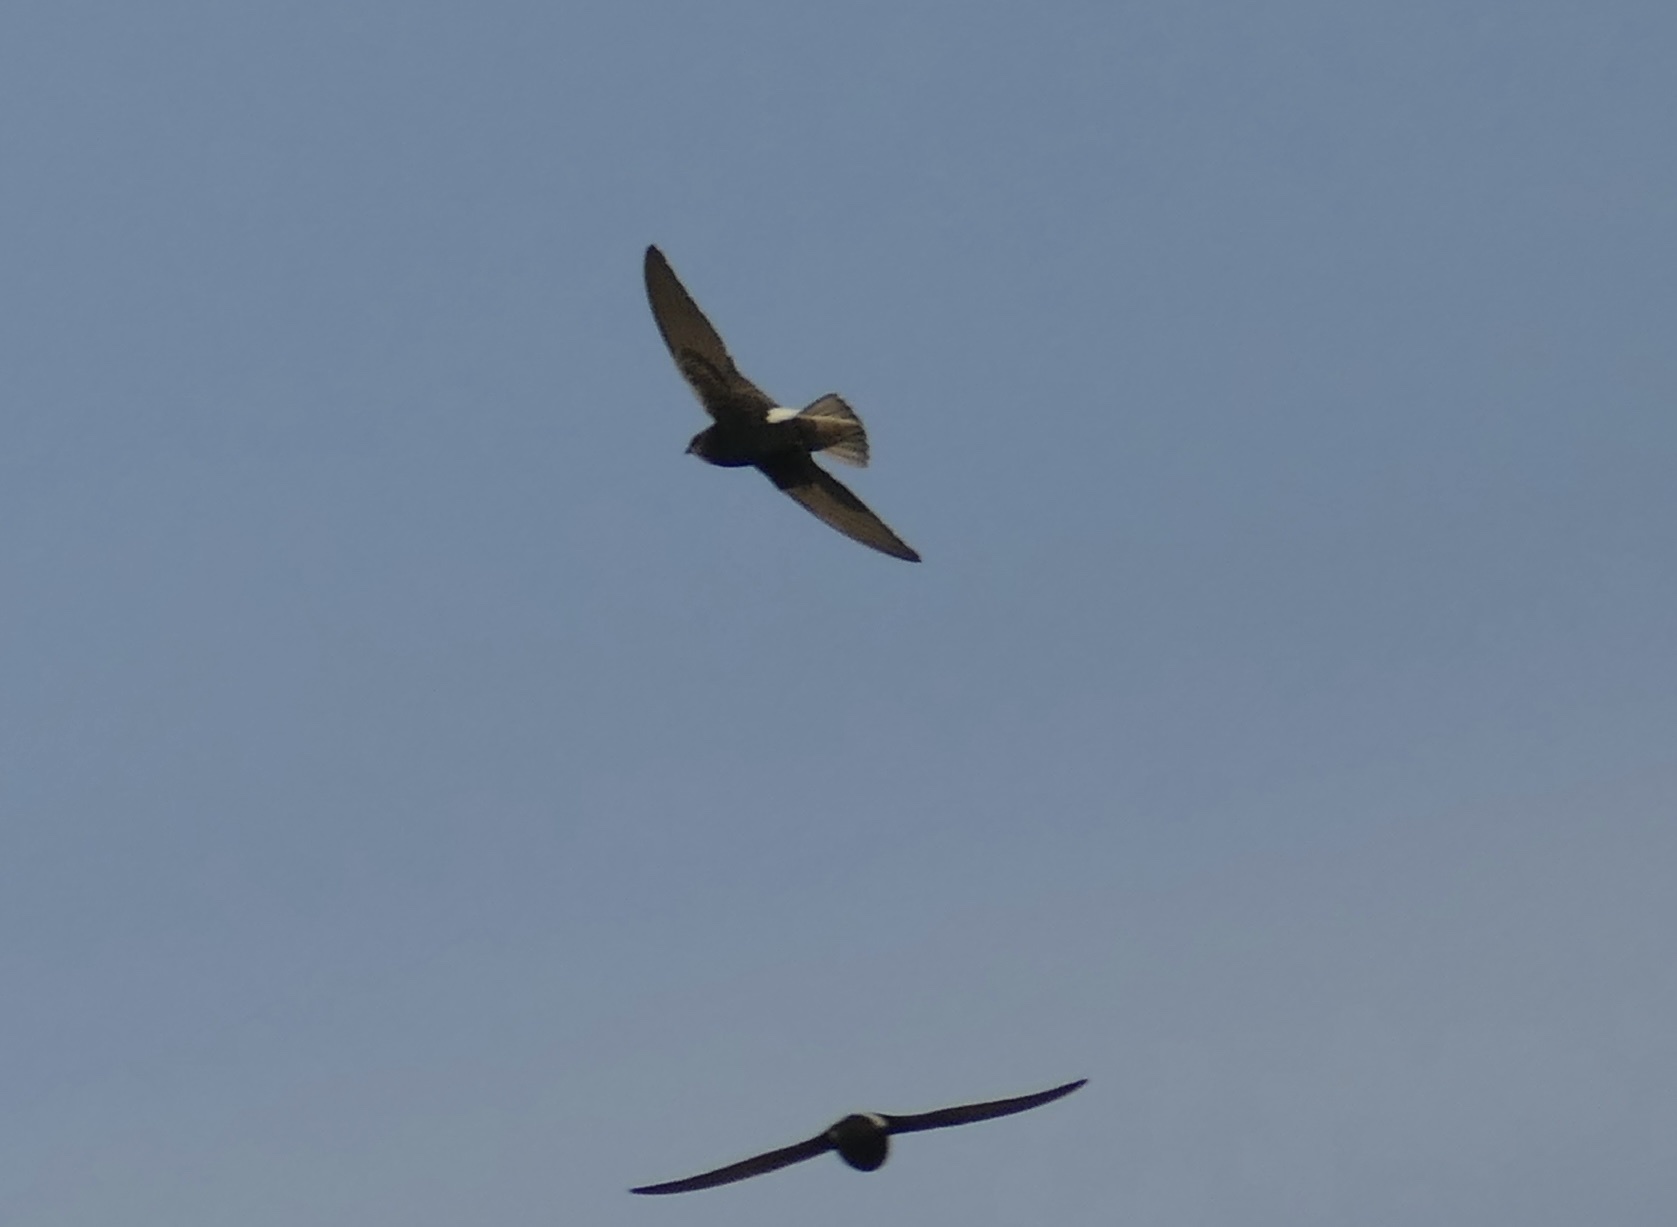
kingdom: Animalia
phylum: Chordata
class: Aves
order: Apodiformes
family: Apodidae
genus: Apus
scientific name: Apus affinis
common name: Little swift
